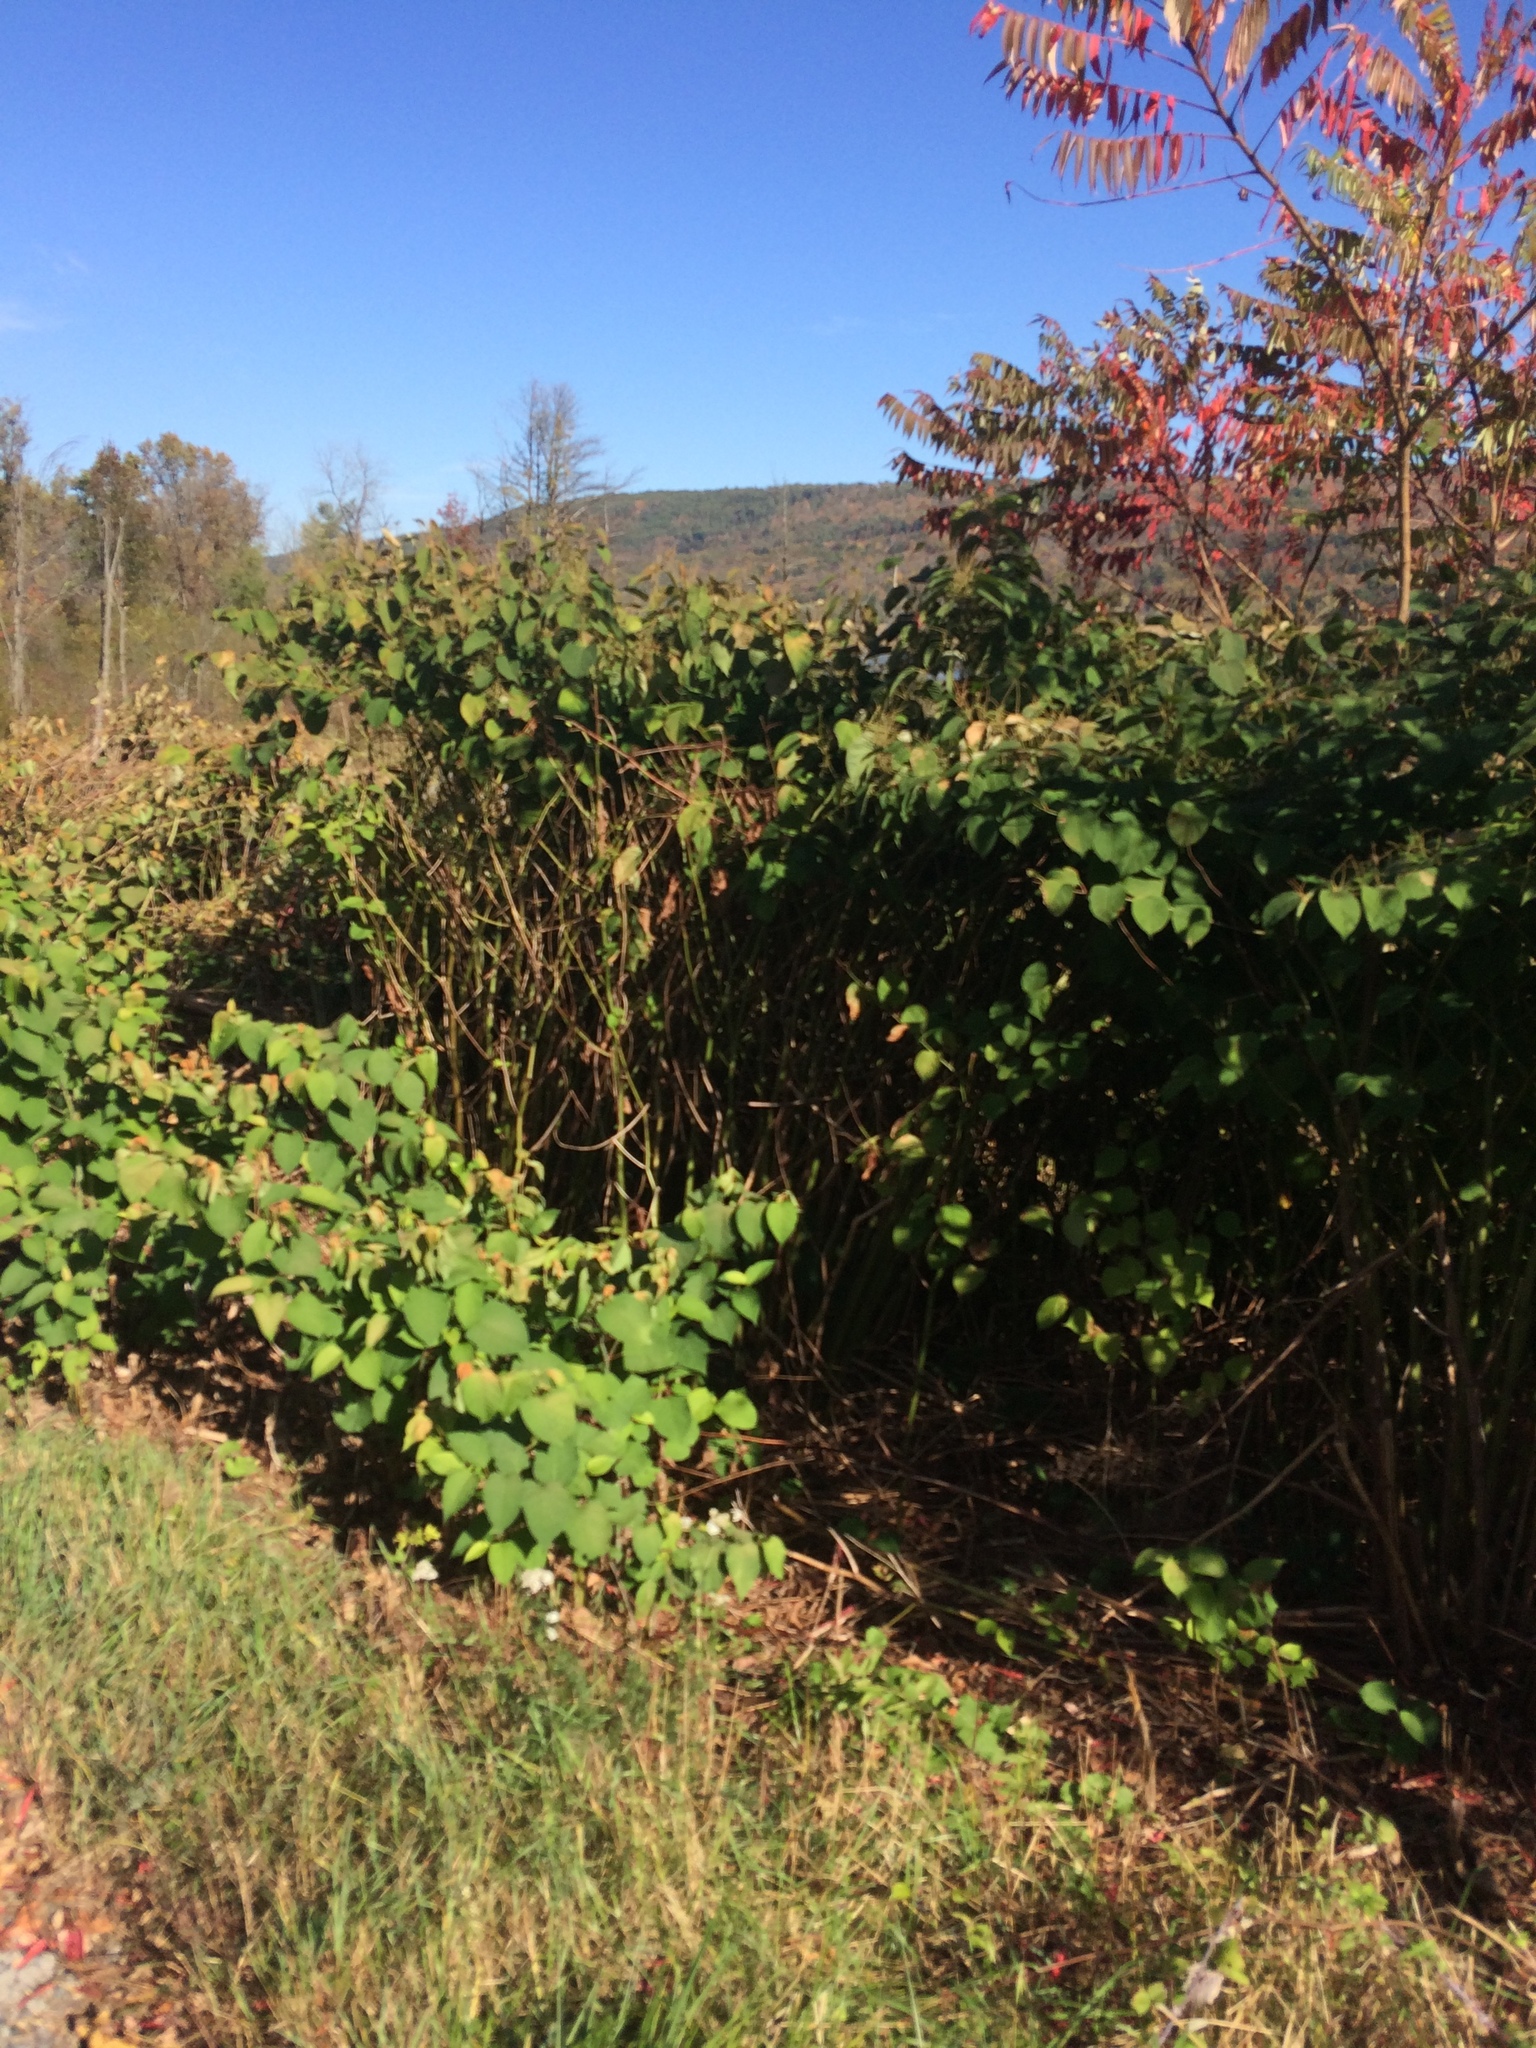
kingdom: Plantae
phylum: Tracheophyta
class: Magnoliopsida
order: Caryophyllales
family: Polygonaceae
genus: Reynoutria
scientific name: Reynoutria japonica
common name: Japanese knotweed
